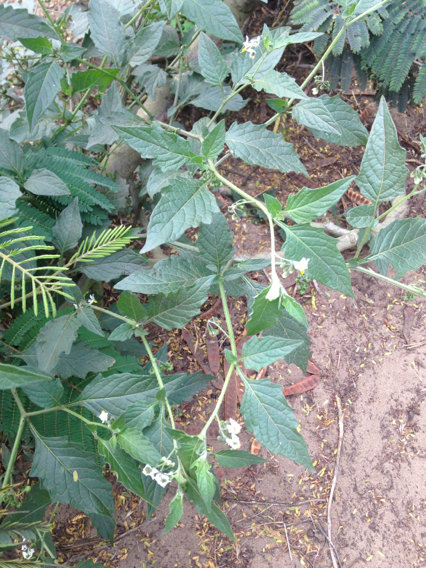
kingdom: Plantae
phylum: Tracheophyta
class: Magnoliopsida
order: Solanales
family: Solanaceae
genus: Solanum
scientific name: Solanum furcatum
